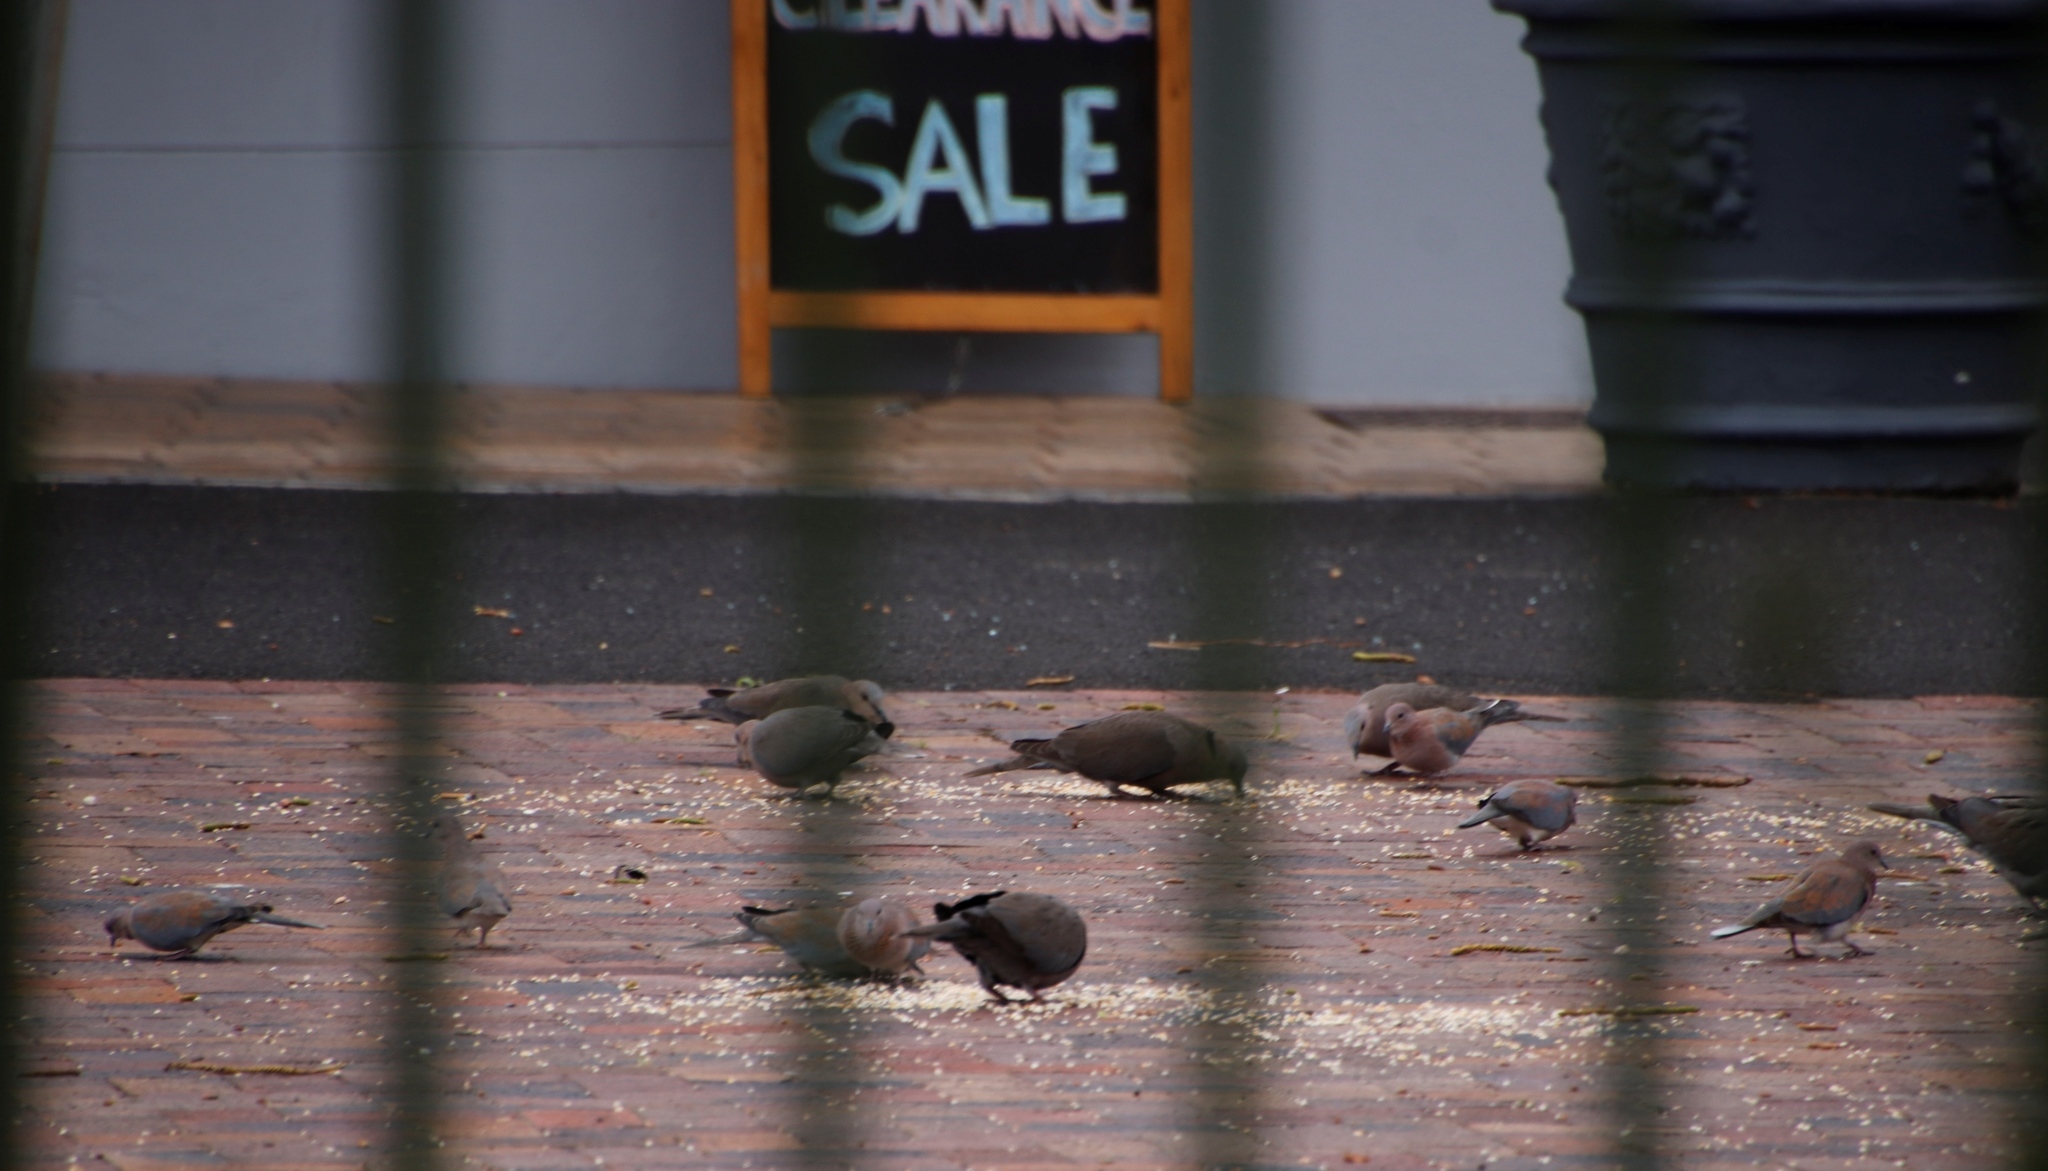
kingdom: Animalia
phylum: Chordata
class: Aves
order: Columbiformes
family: Columbidae
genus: Streptopelia
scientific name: Streptopelia semitorquata
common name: Red-eyed dove
